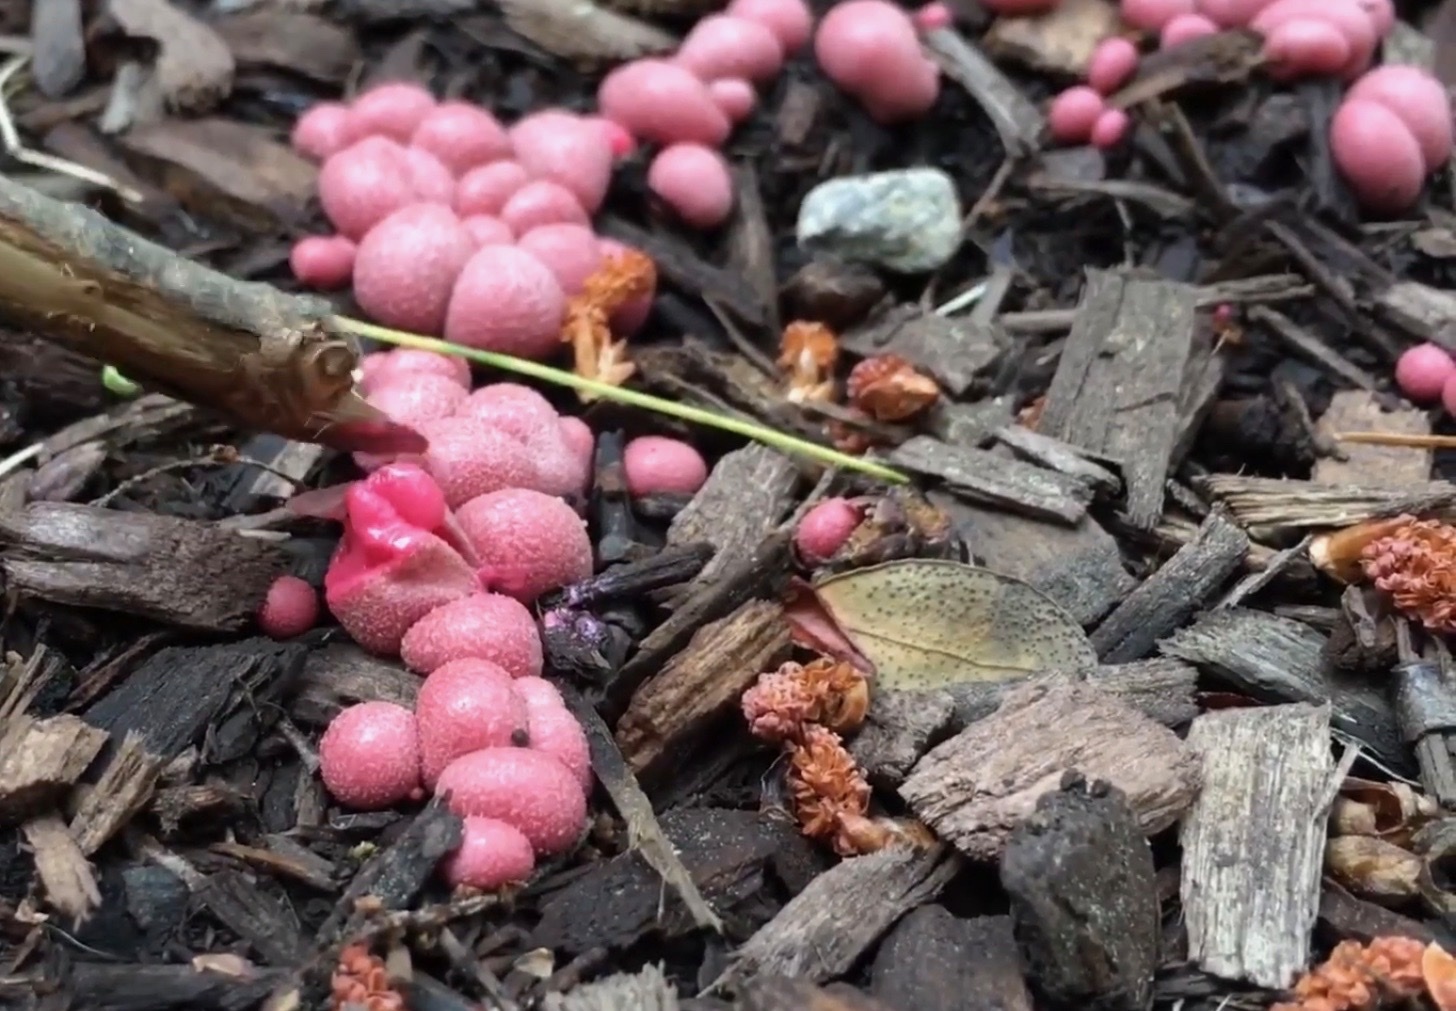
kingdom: Protozoa
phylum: Mycetozoa
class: Myxomycetes
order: Cribrariales
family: Tubiferaceae
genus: Lycogala
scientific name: Lycogala epidendrum
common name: Wolf's milk
